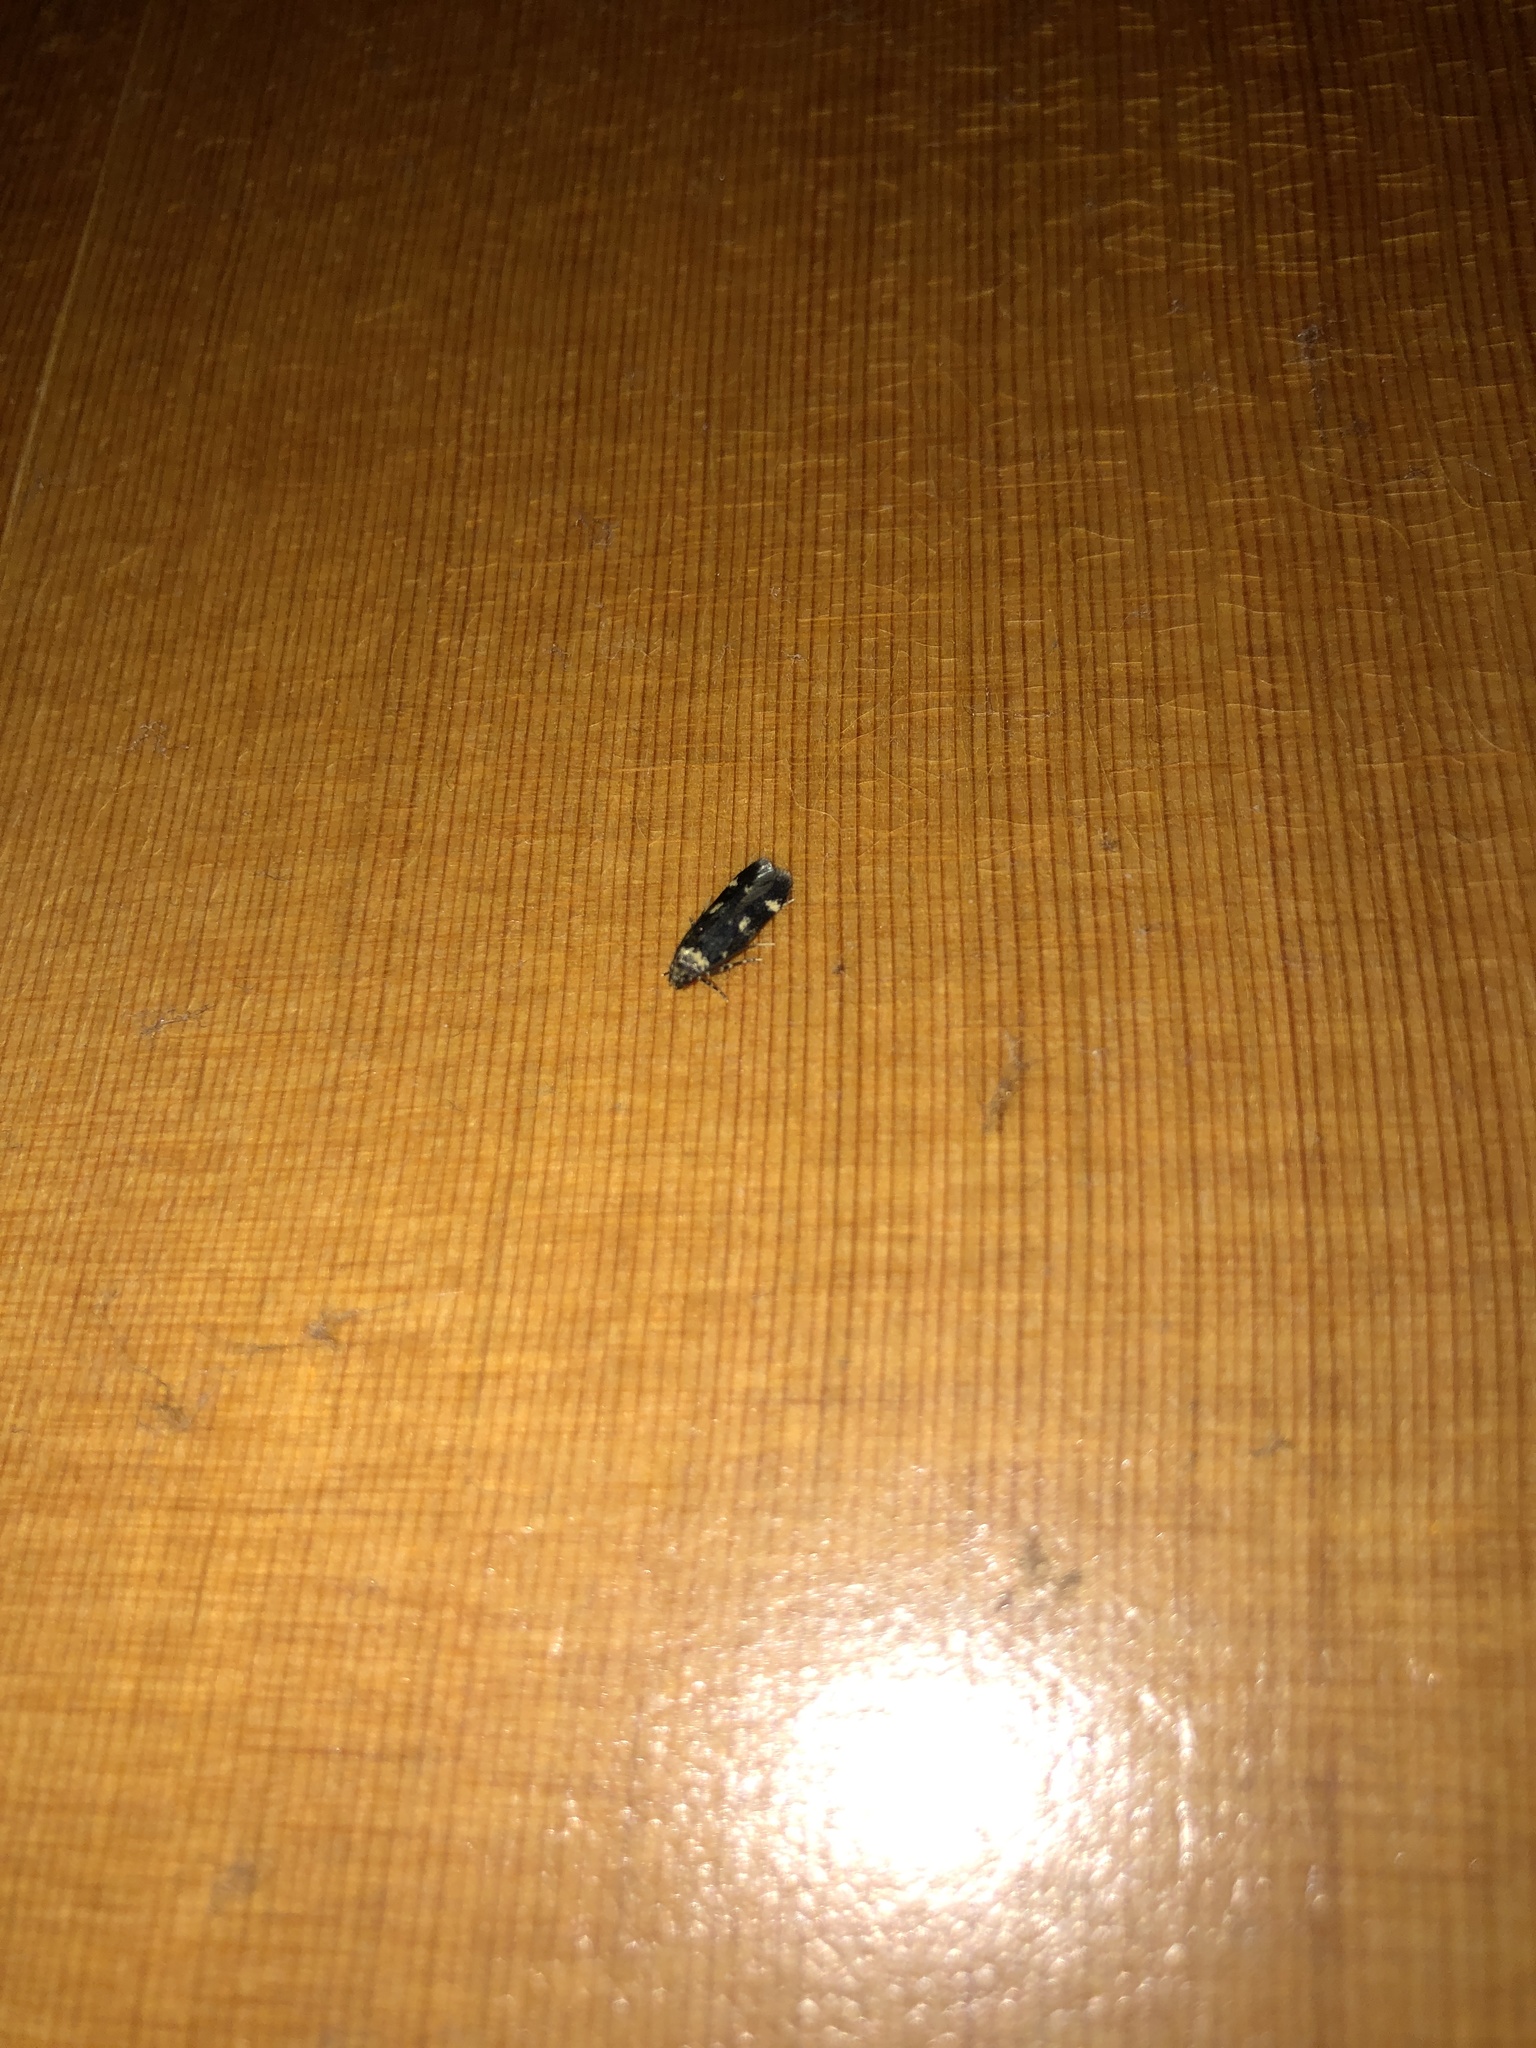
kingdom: Animalia
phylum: Arthropoda
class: Insecta
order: Lepidoptera
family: Autostichidae
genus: Oegoconia
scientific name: Oegoconia quadripuncta
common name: Four-spotted obscure
